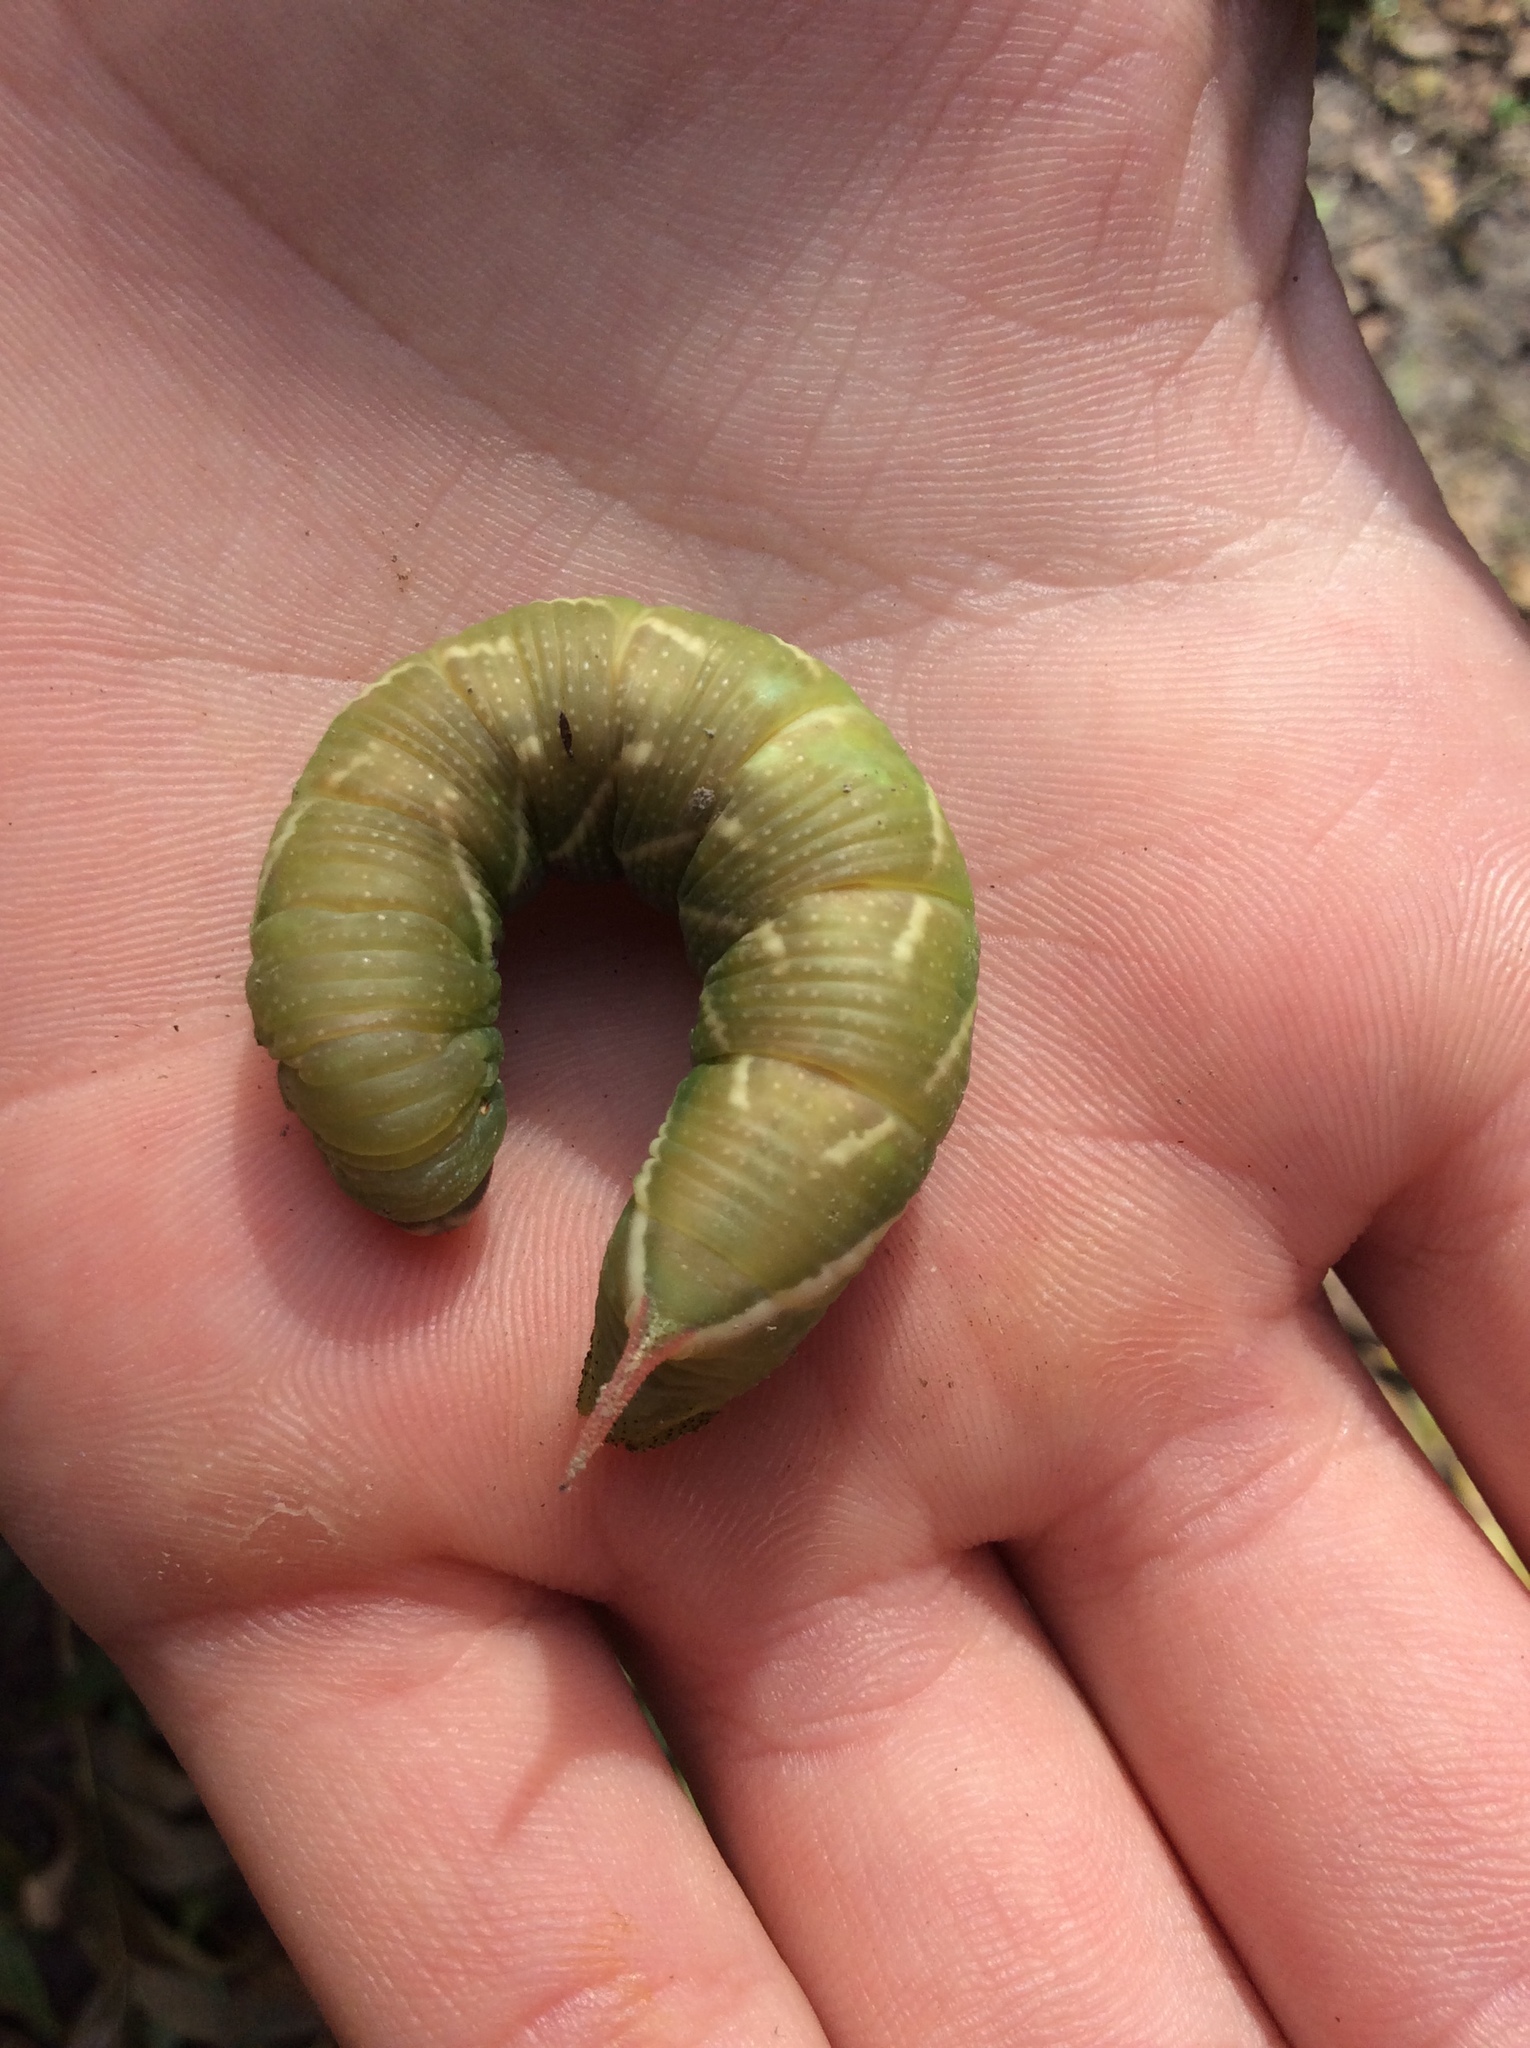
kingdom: Animalia
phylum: Arthropoda
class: Insecta
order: Lepidoptera
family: Sphingidae
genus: Ceratomia
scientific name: Ceratomia undulosa
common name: Waved sphinx
